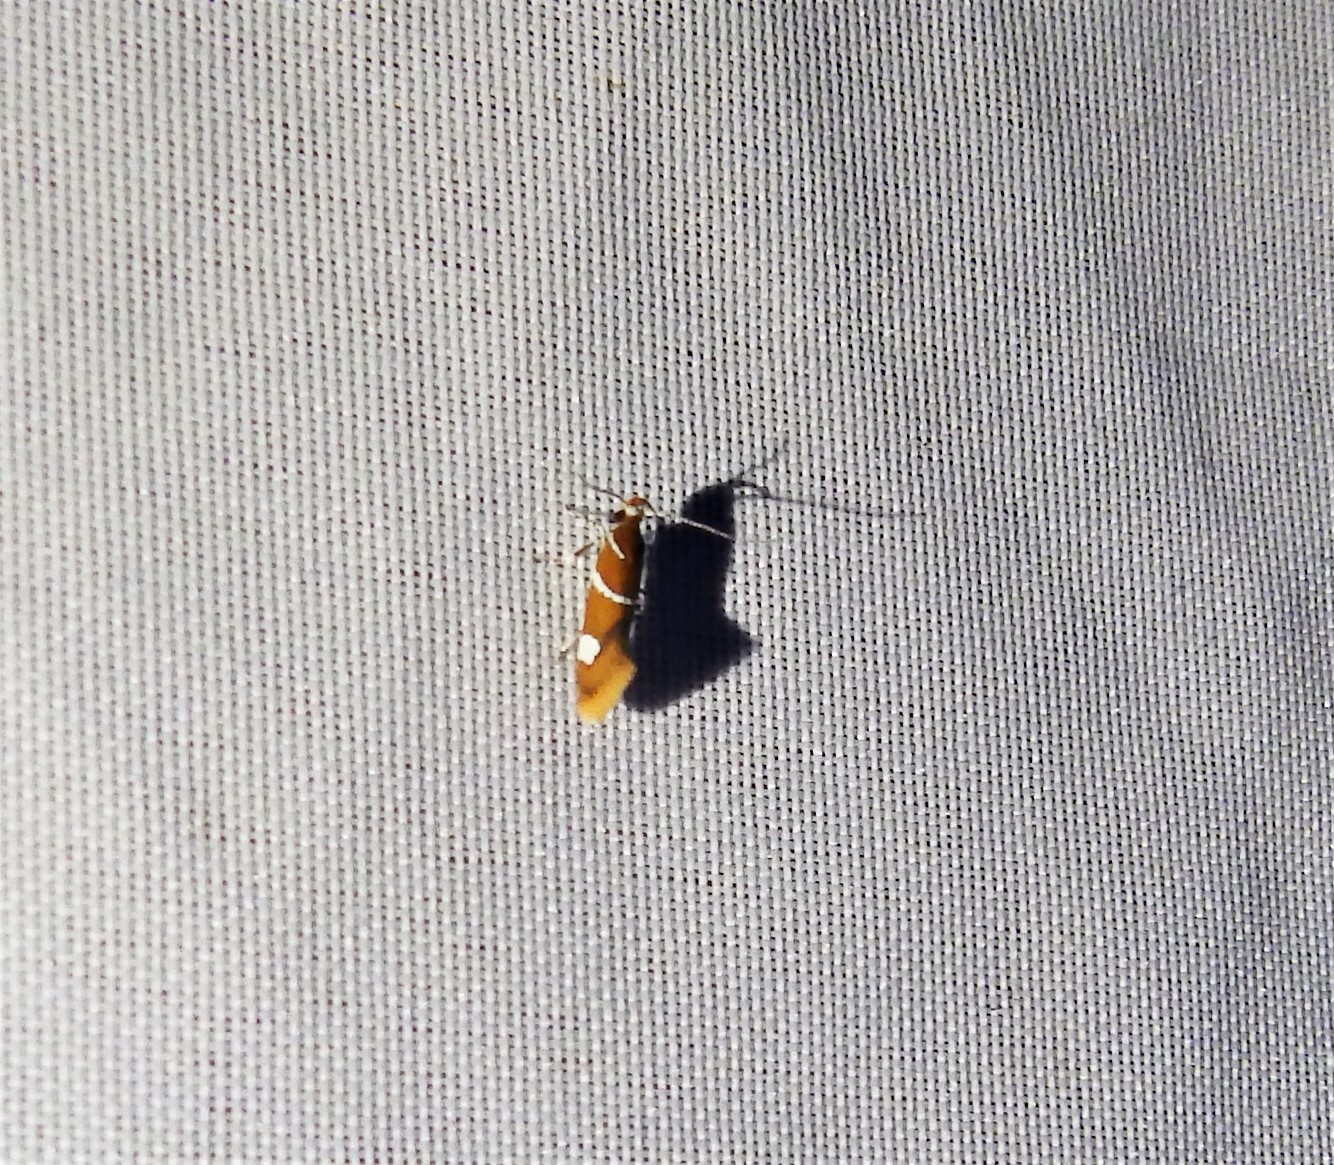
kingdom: Animalia
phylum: Arthropoda
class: Insecta
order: Lepidoptera
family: Oecophoridae
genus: Promalactis
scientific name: Promalactis suzukiella
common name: Moth
